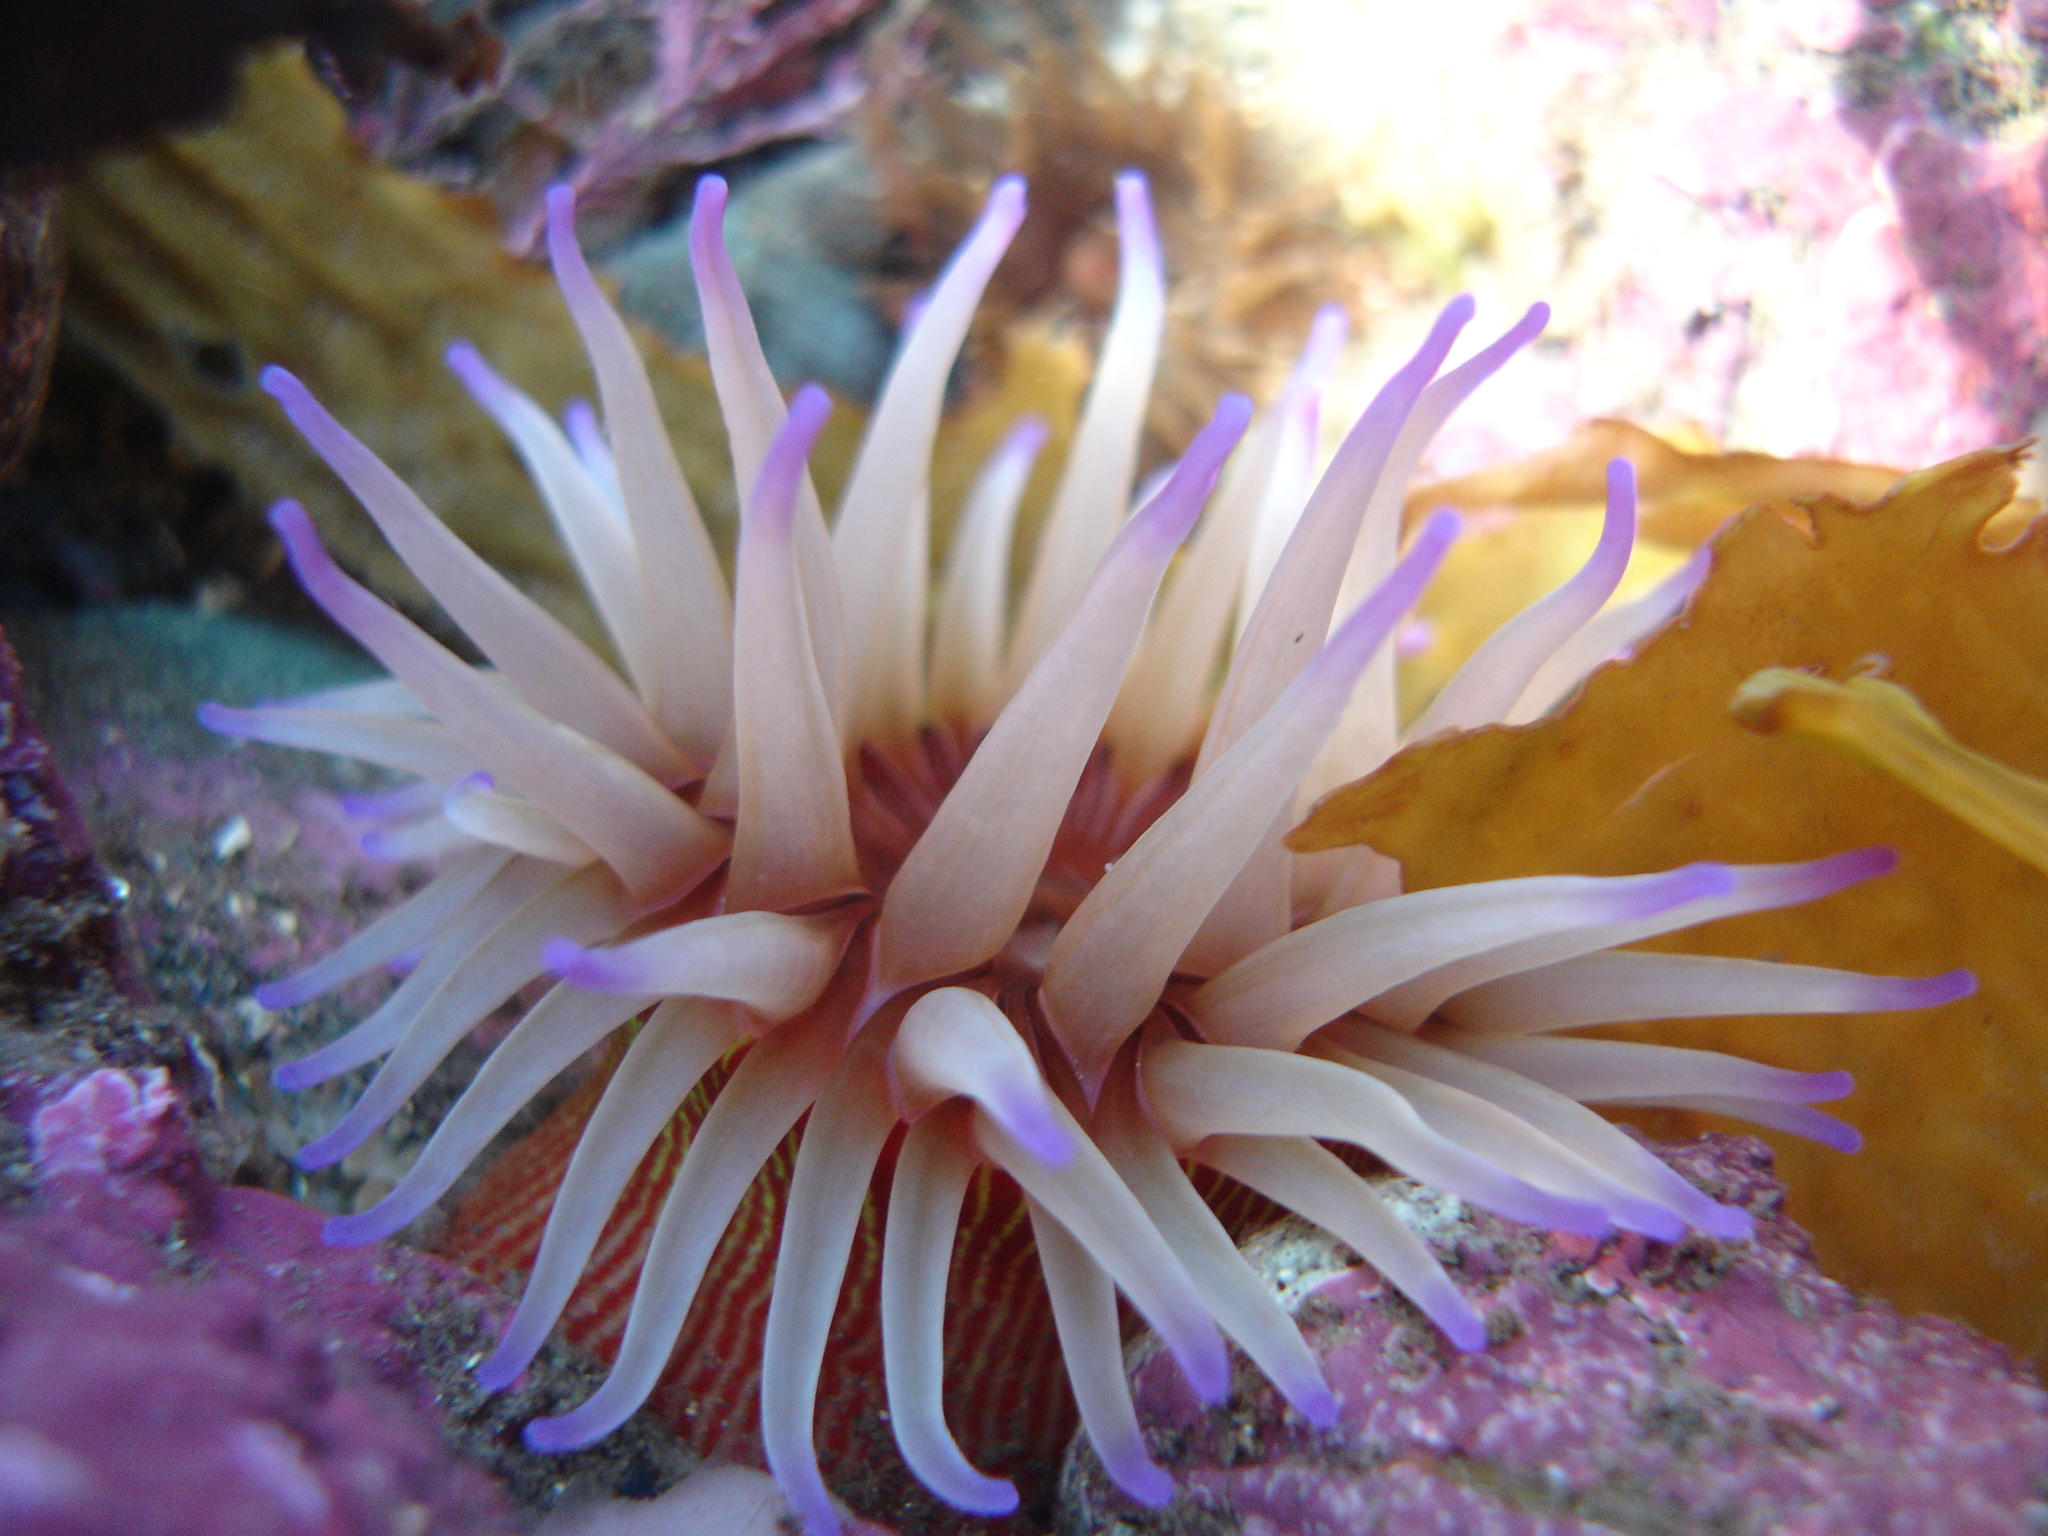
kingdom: Animalia
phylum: Cnidaria
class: Anthozoa
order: Actiniaria
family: Actiniidae
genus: Epiactis
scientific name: Epiactis thompsoni
